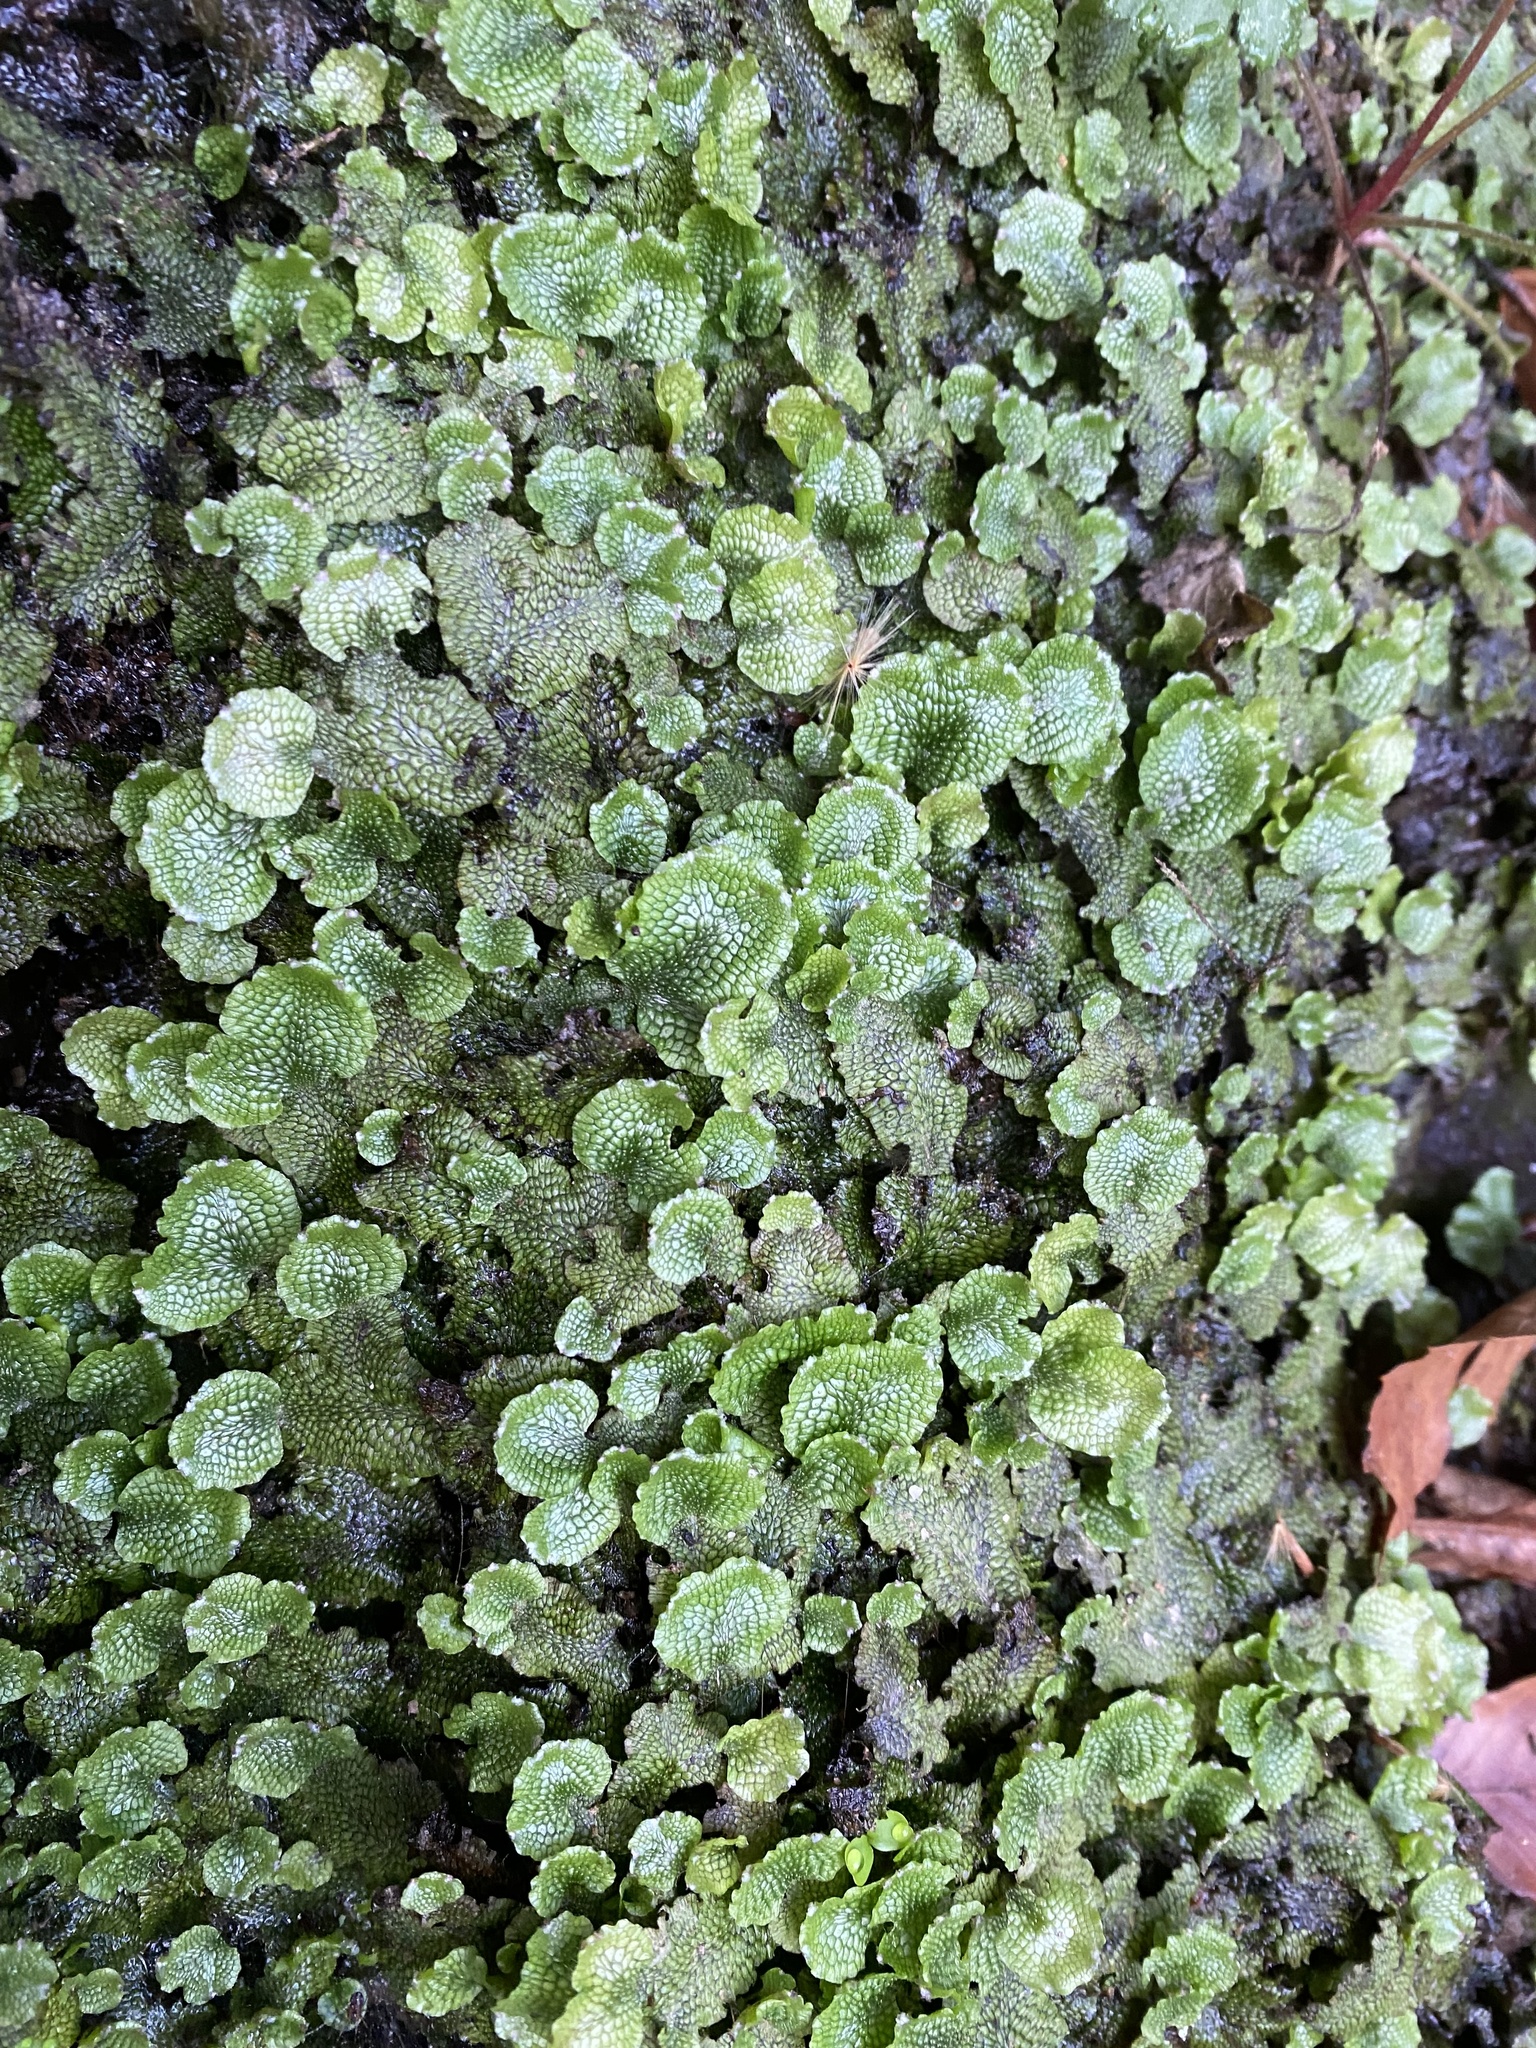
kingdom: Plantae
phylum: Marchantiophyta
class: Marchantiopsida
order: Marchantiales
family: Conocephalaceae
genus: Conocephalum
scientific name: Conocephalum salebrosum
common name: Cat-tongue liverwort
